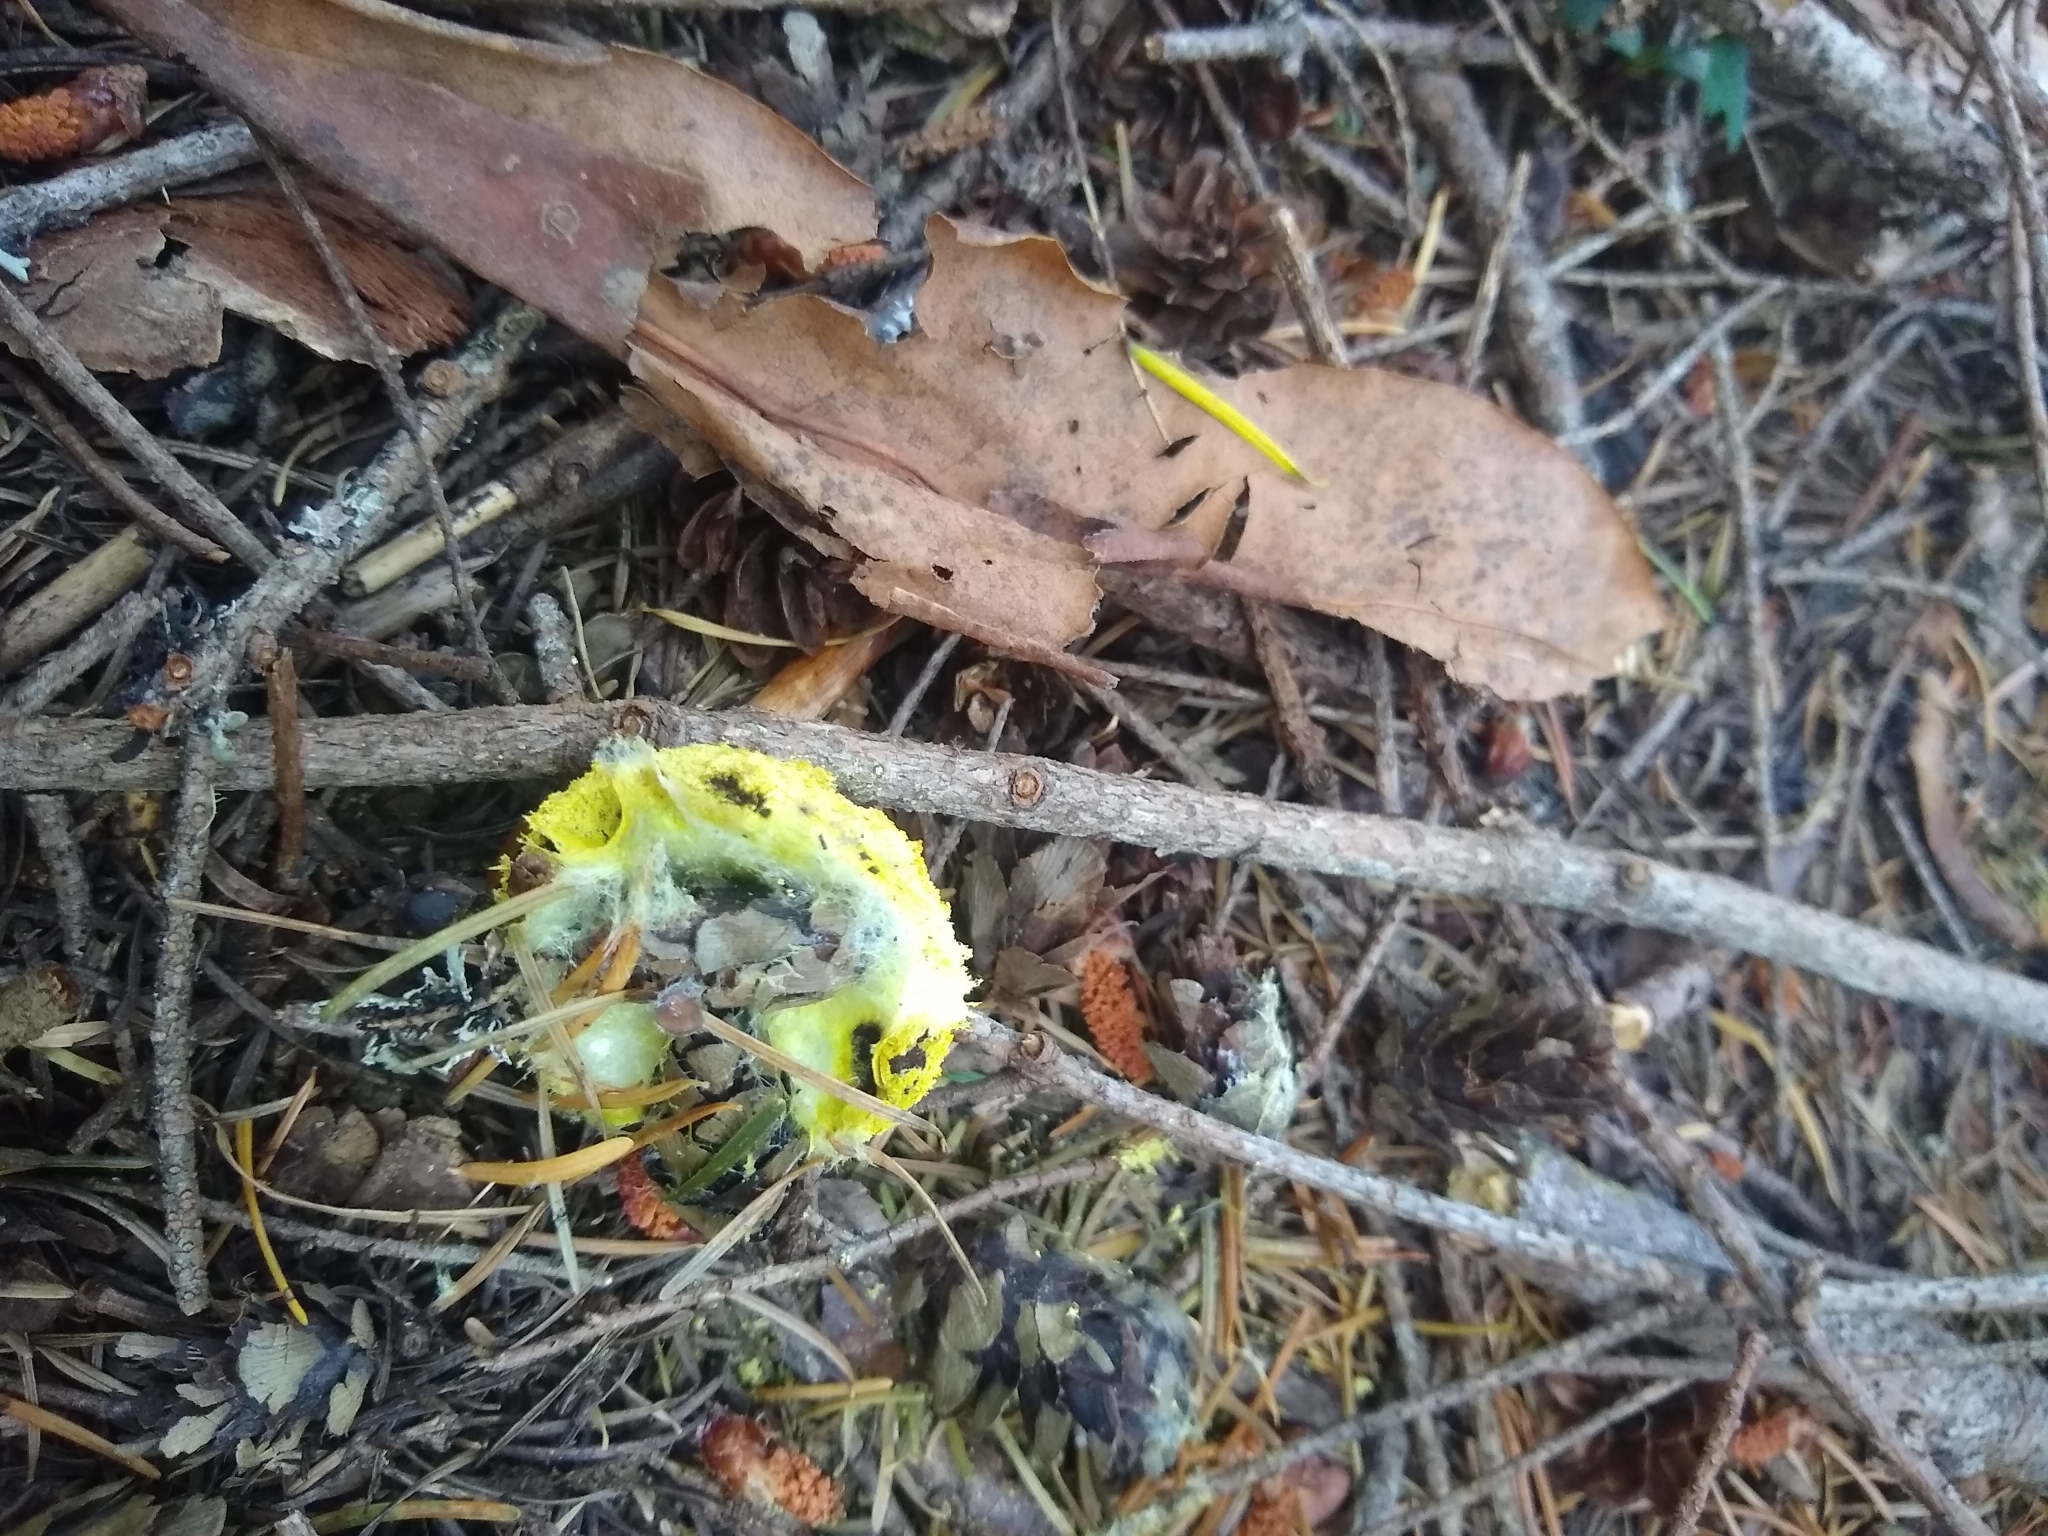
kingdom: Protozoa
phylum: Mycetozoa
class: Myxomycetes
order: Physarales
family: Physaraceae
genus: Fuligo
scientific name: Fuligo septica
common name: Dog vomit slime mold
